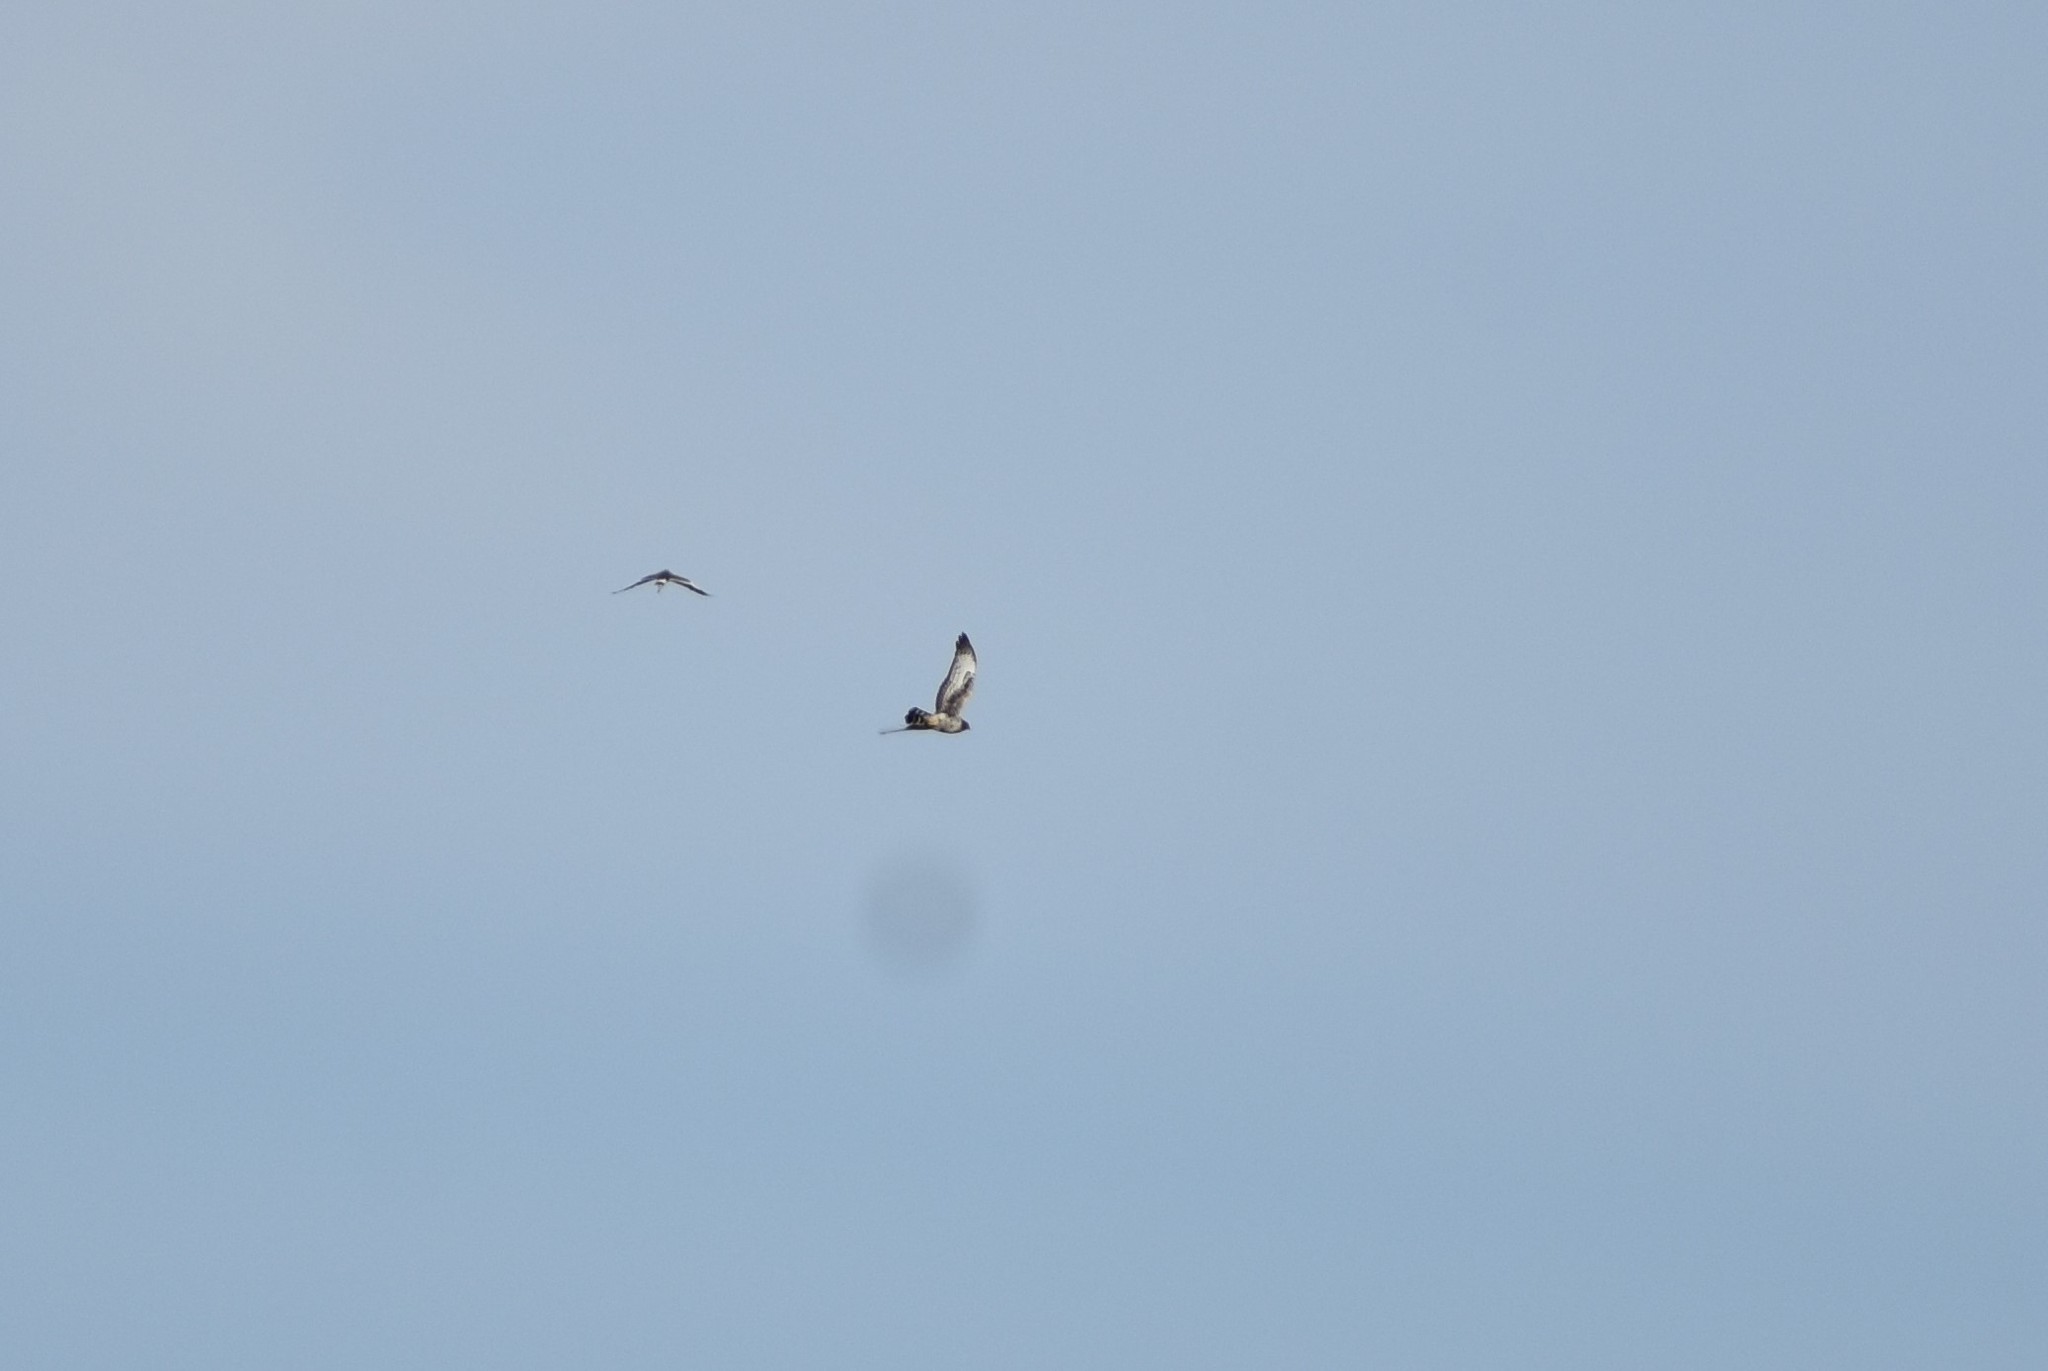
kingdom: Animalia
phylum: Chordata
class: Aves
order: Accipitriformes
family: Accipitridae
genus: Circus
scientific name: Circus maurus
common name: Black harrier
